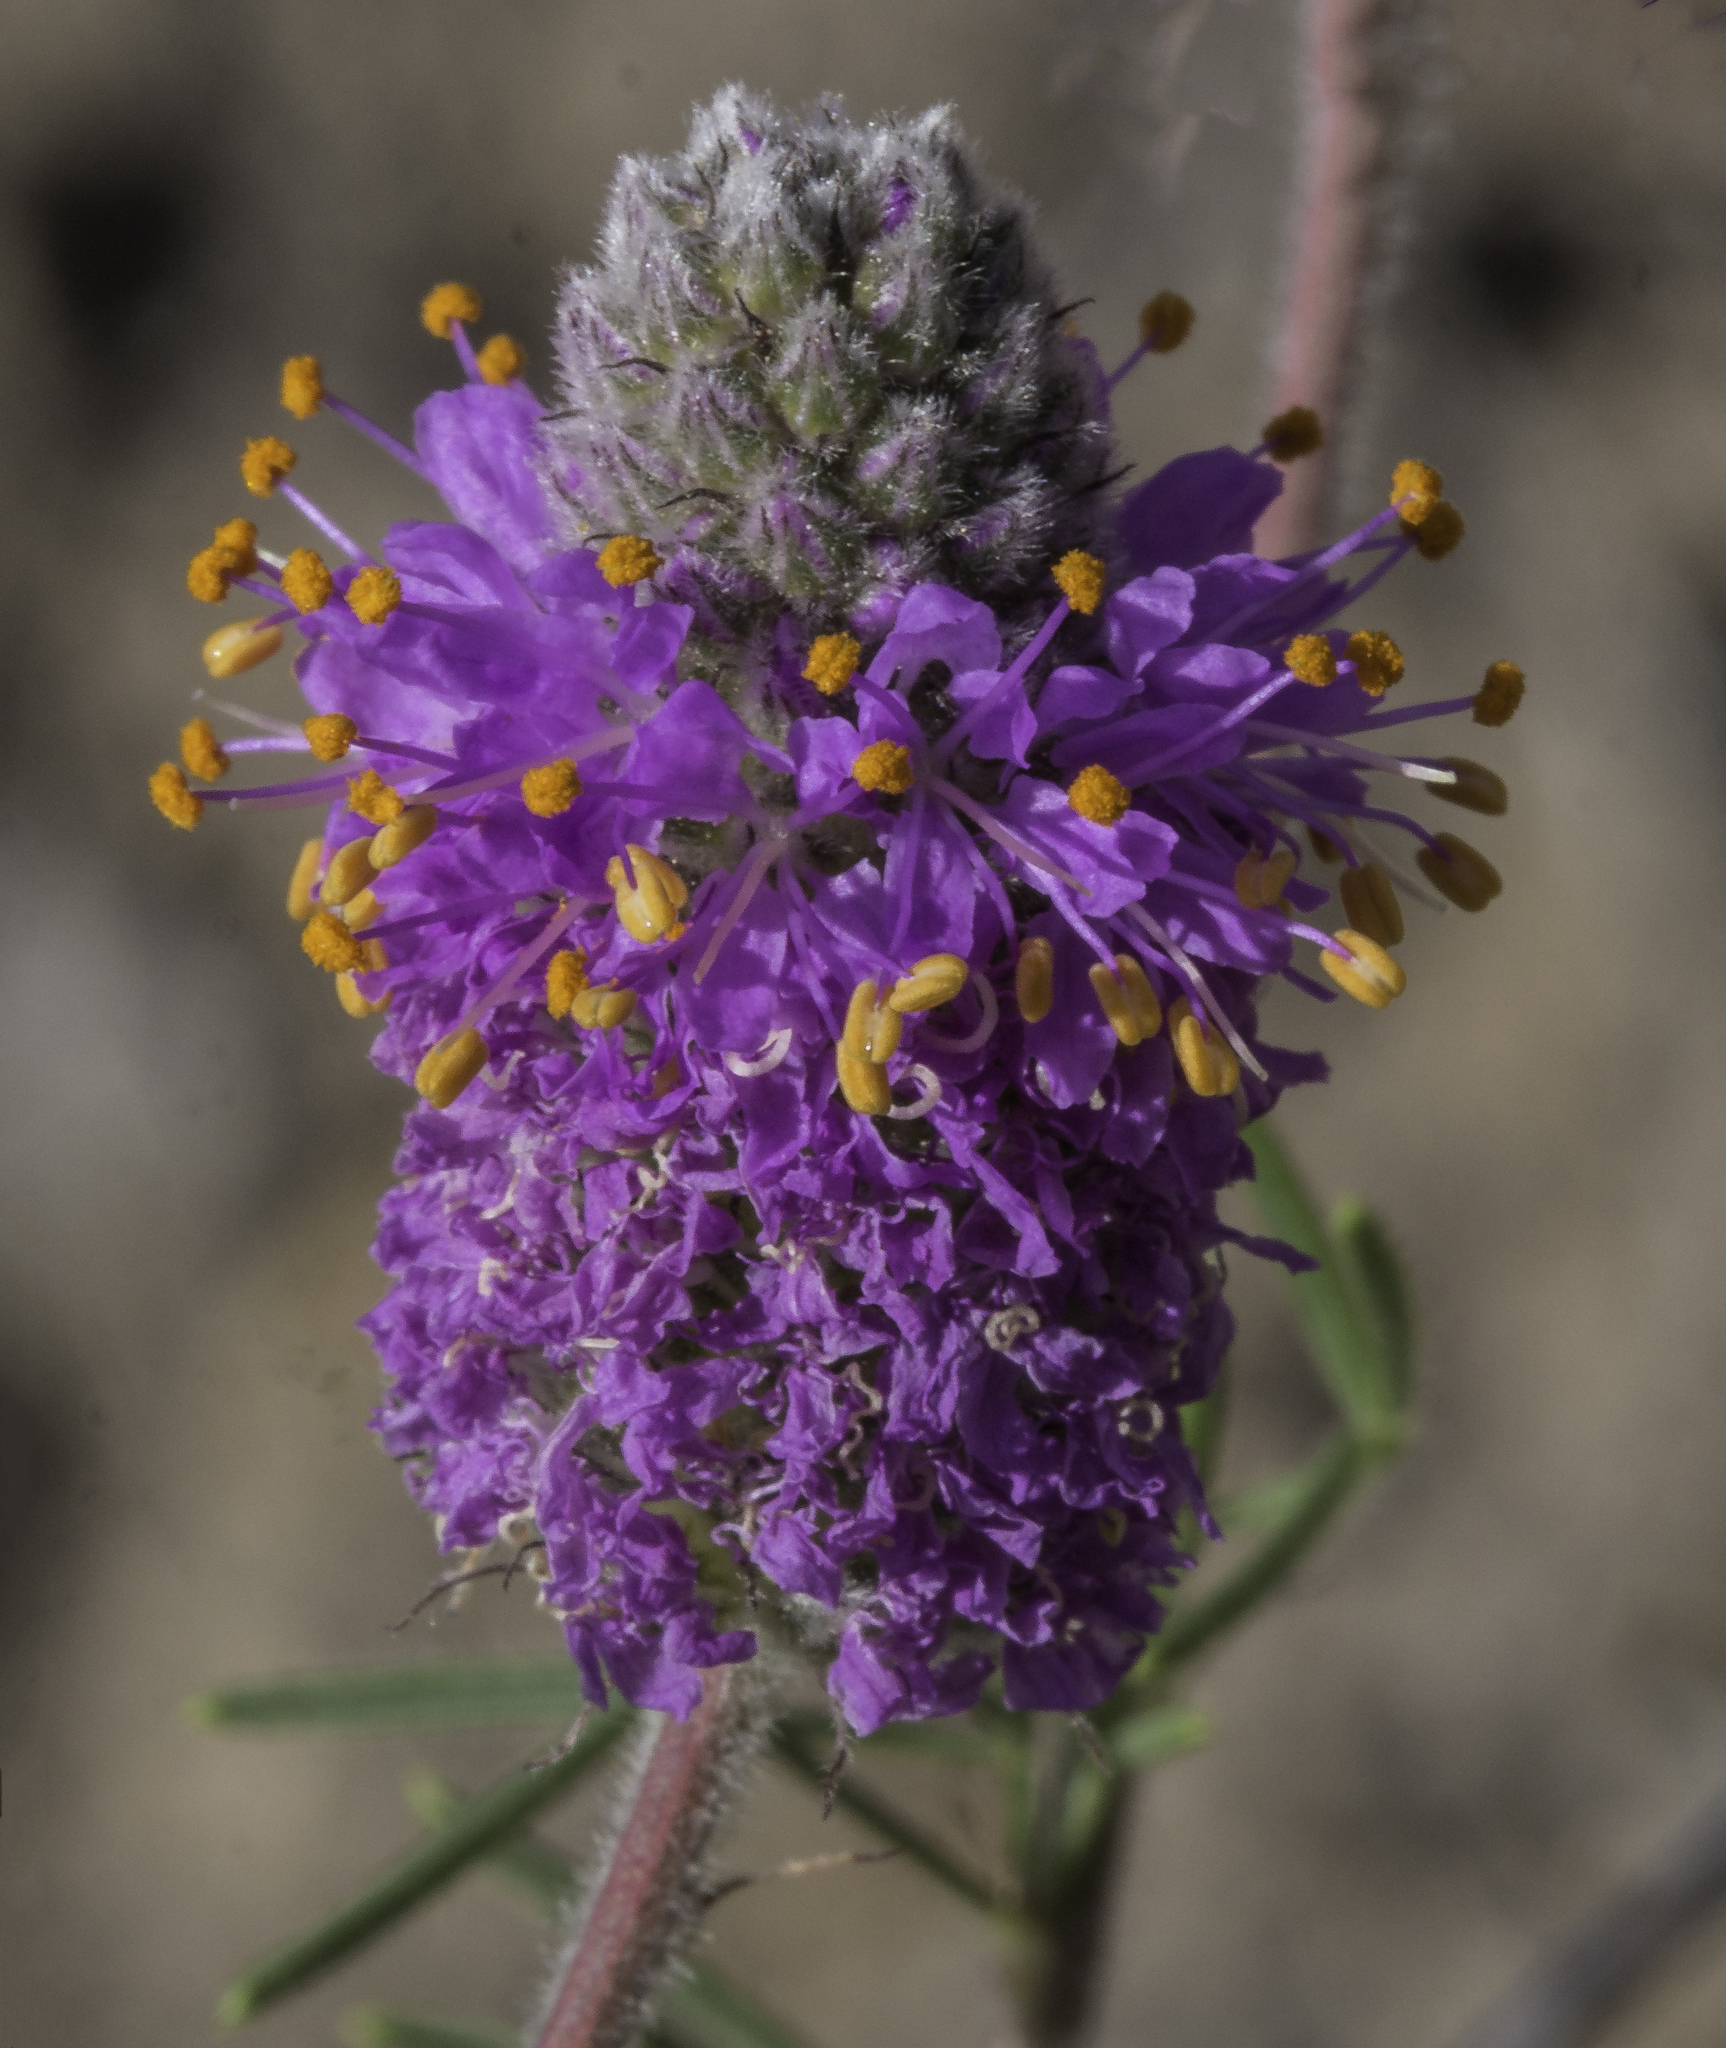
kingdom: Plantae
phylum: Tracheophyta
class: Magnoliopsida
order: Fabales
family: Fabaceae
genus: Dalea
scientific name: Dalea purpurea
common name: Purple prairie-clover
